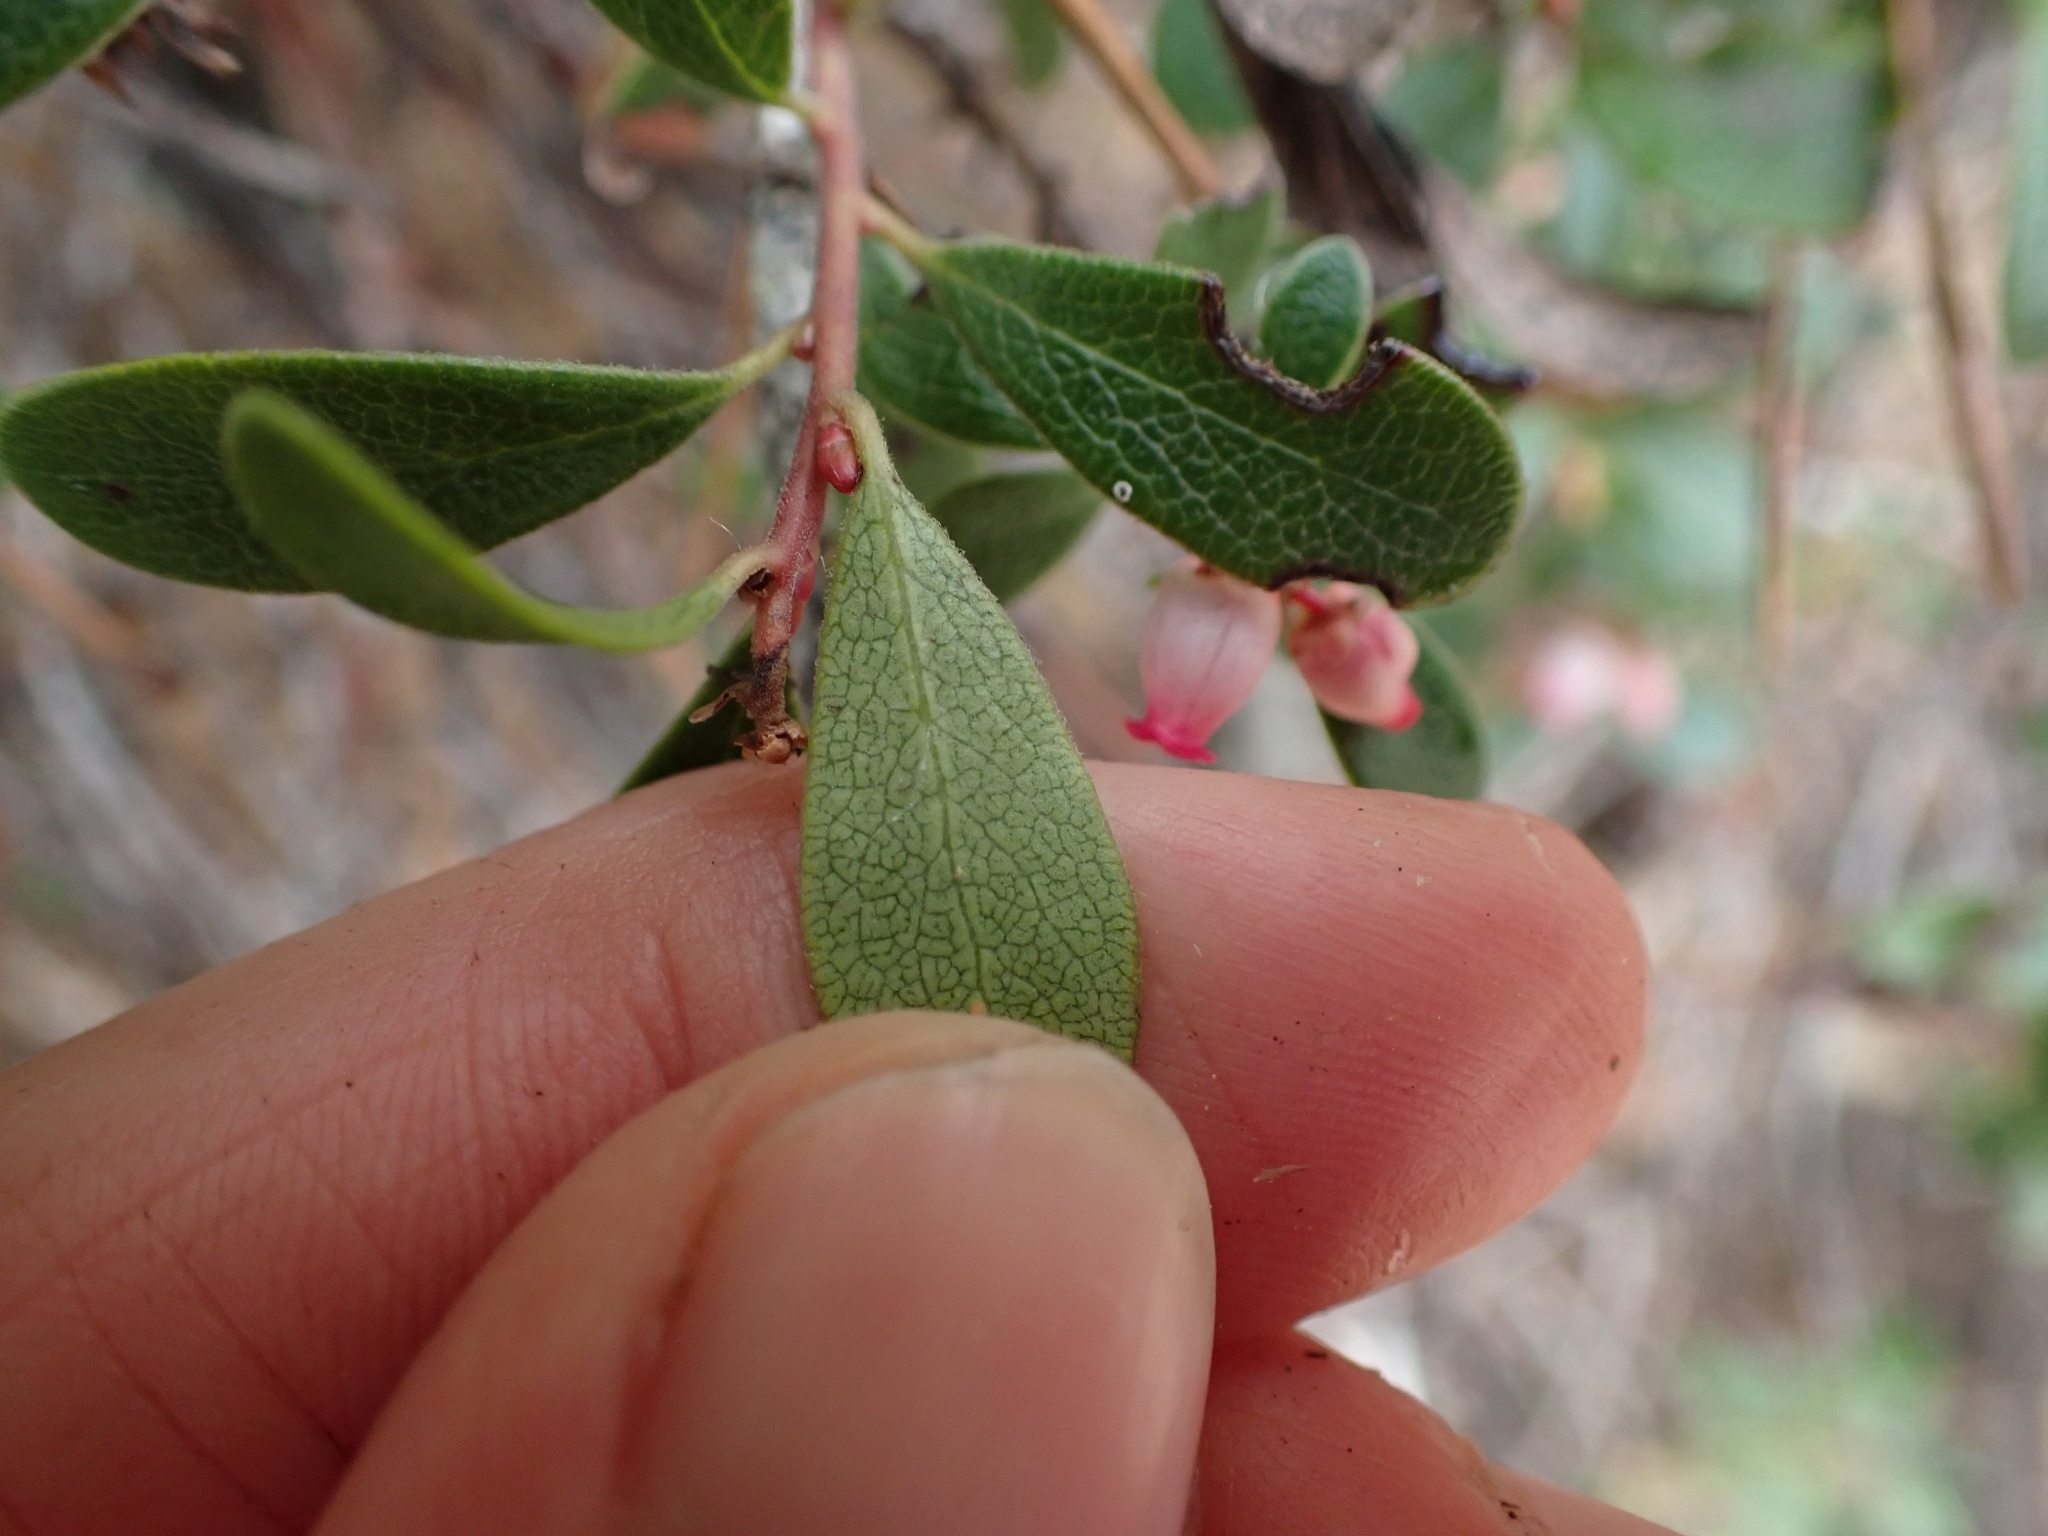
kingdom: Plantae
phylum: Tracheophyta
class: Magnoliopsida
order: Ericales
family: Ericaceae
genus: Arctostaphylos
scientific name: Arctostaphylos uva-ursi
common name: Bearberry
